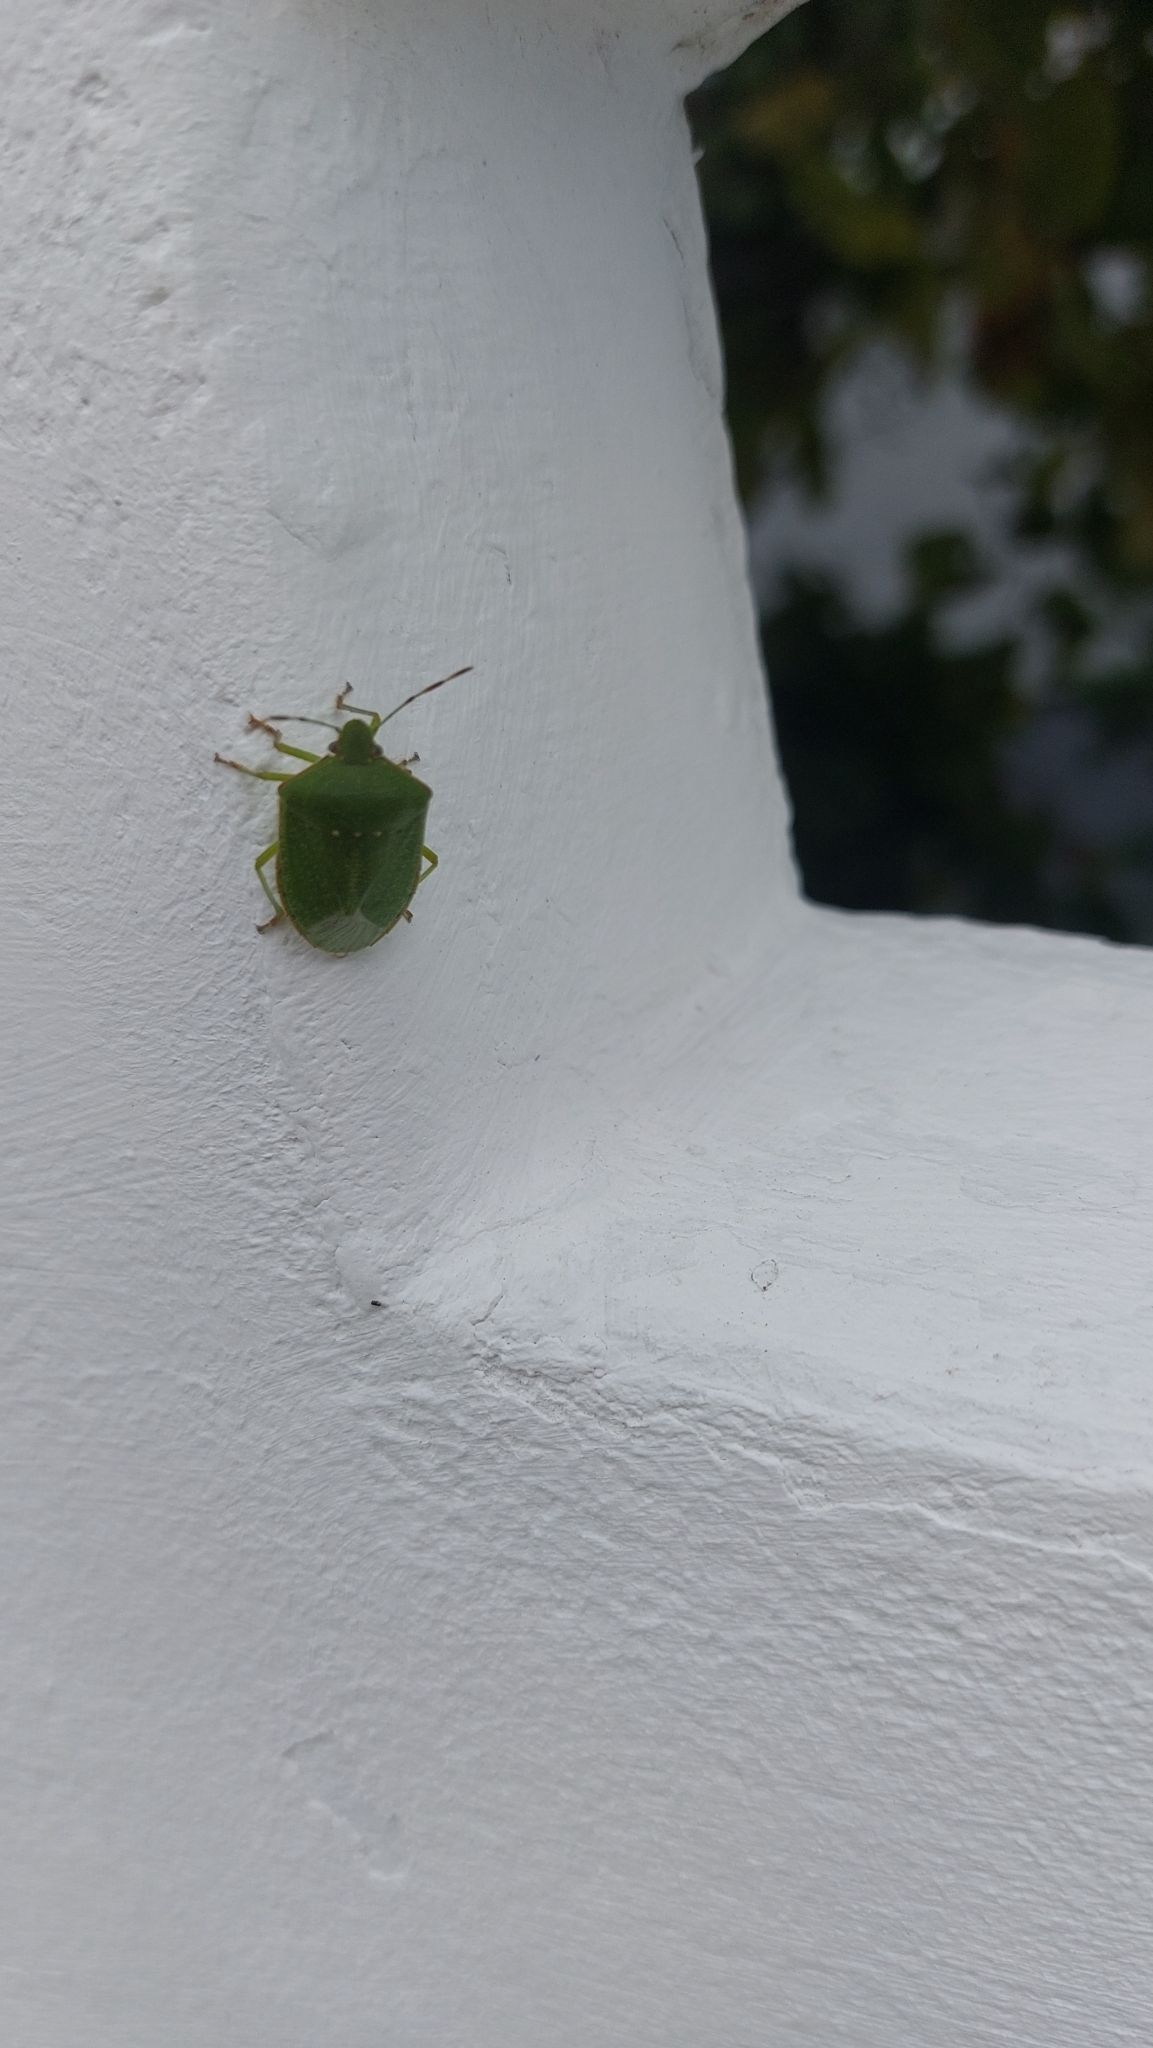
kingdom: Animalia
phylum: Arthropoda
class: Insecta
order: Hemiptera
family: Pentatomidae
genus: Nezara
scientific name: Nezara viridula
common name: Southern green stink bug
